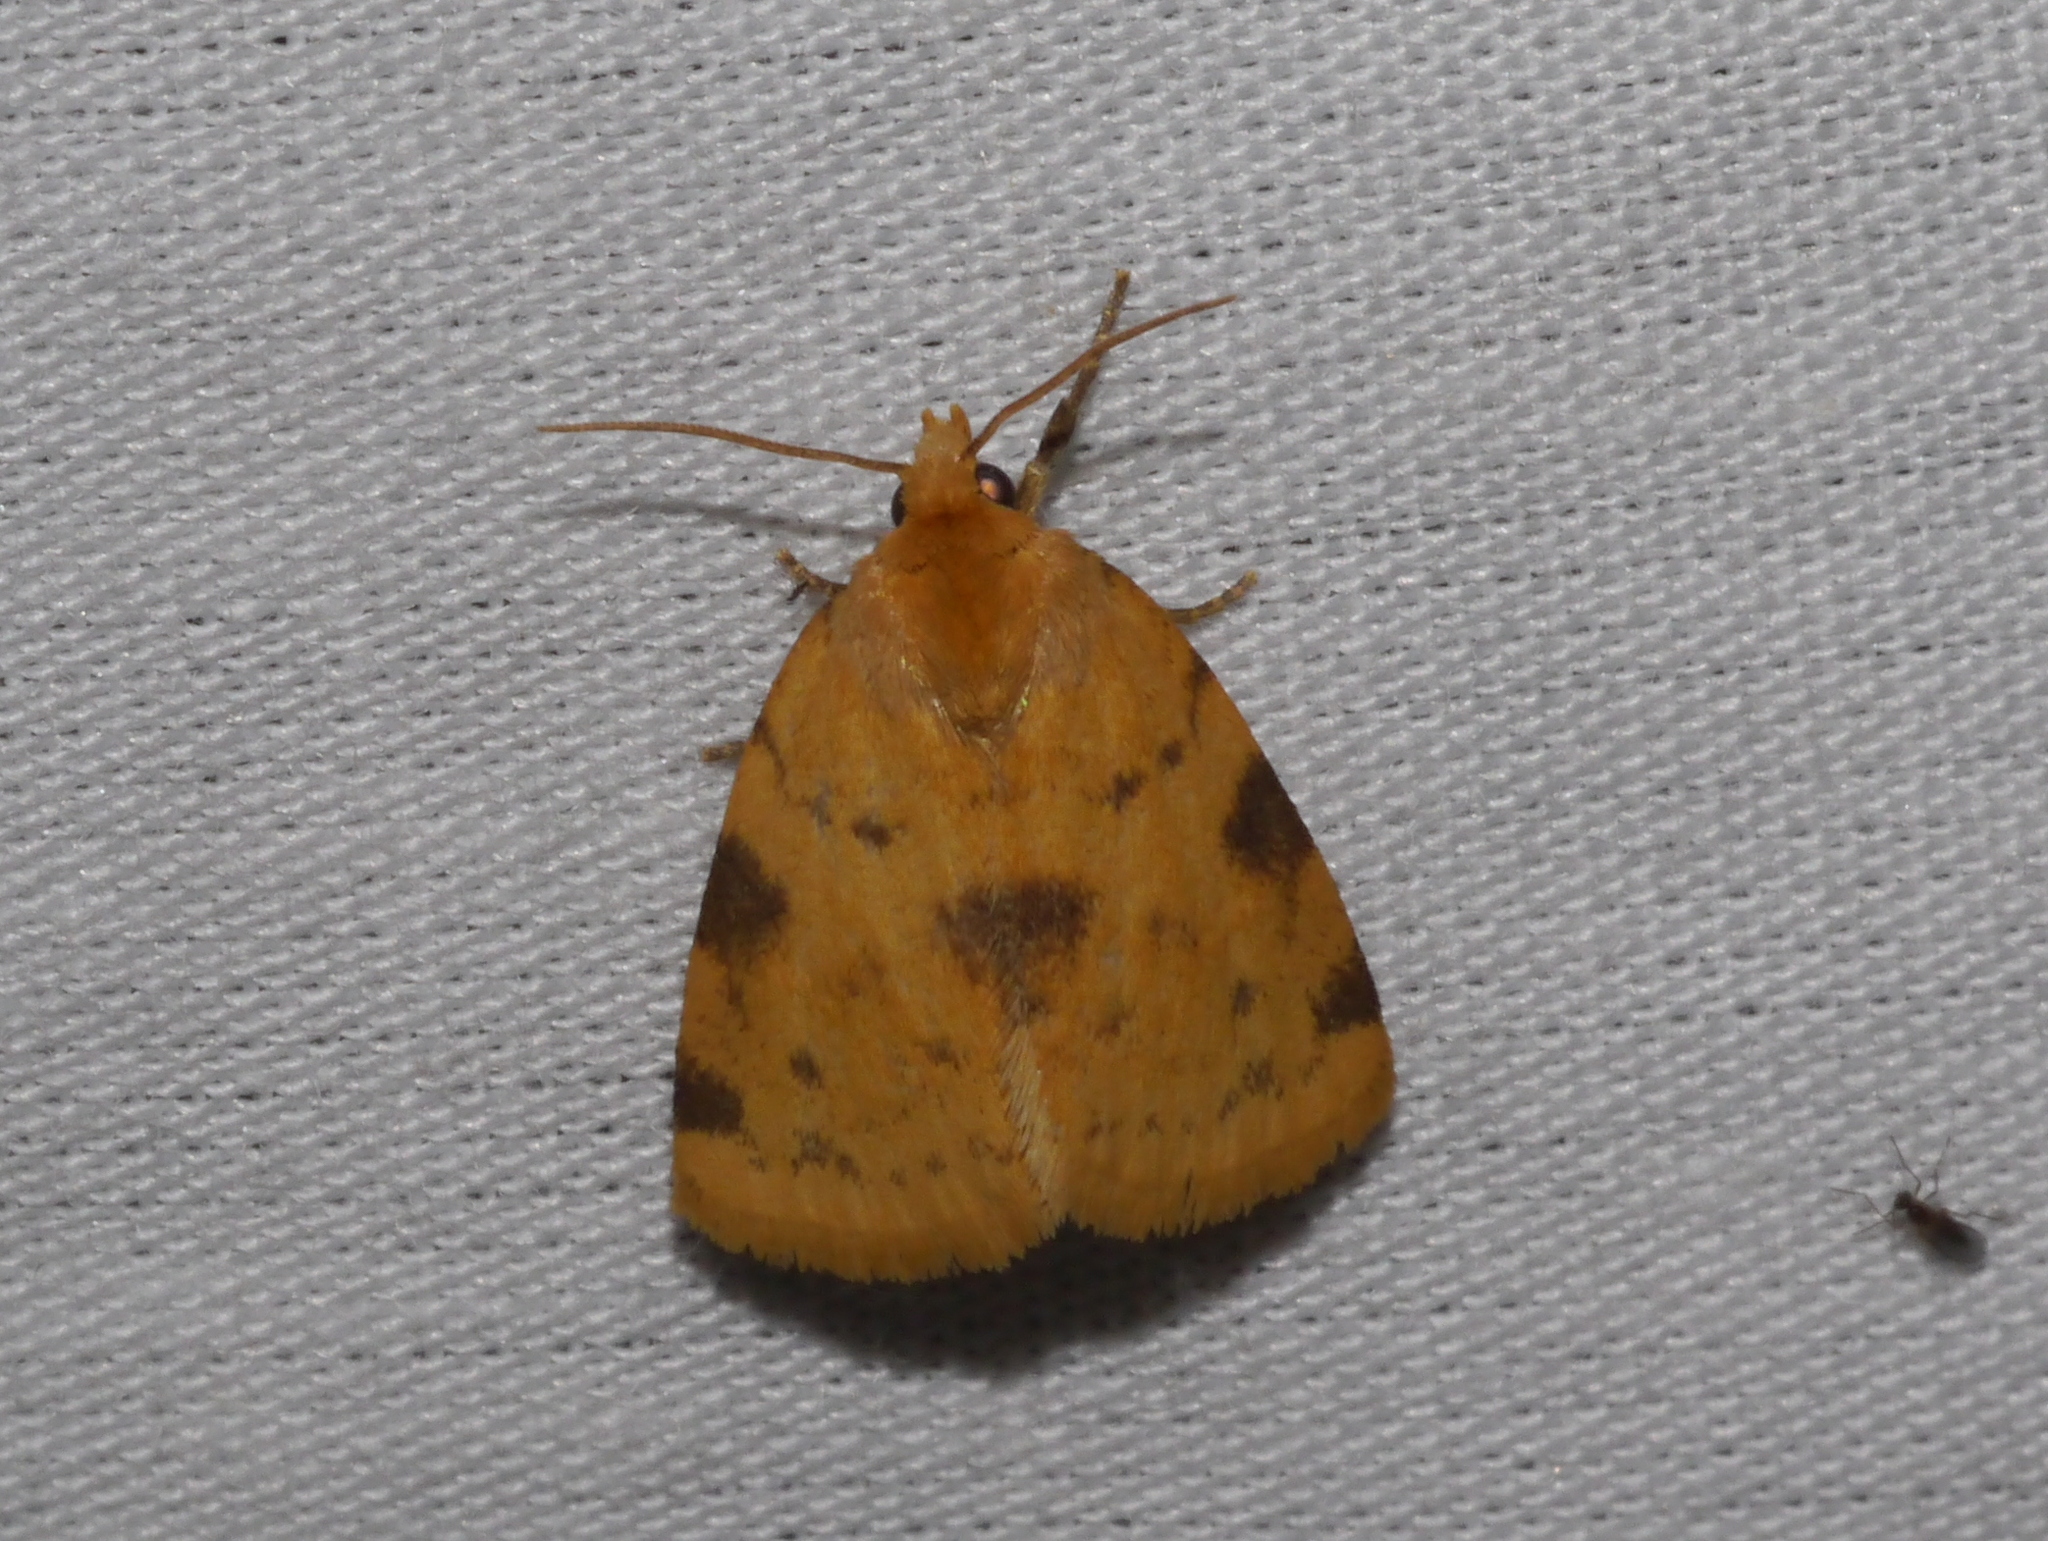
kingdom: Animalia
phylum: Arthropoda
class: Insecta
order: Lepidoptera
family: Noctuidae
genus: Azenia
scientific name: Azenia obtusa
